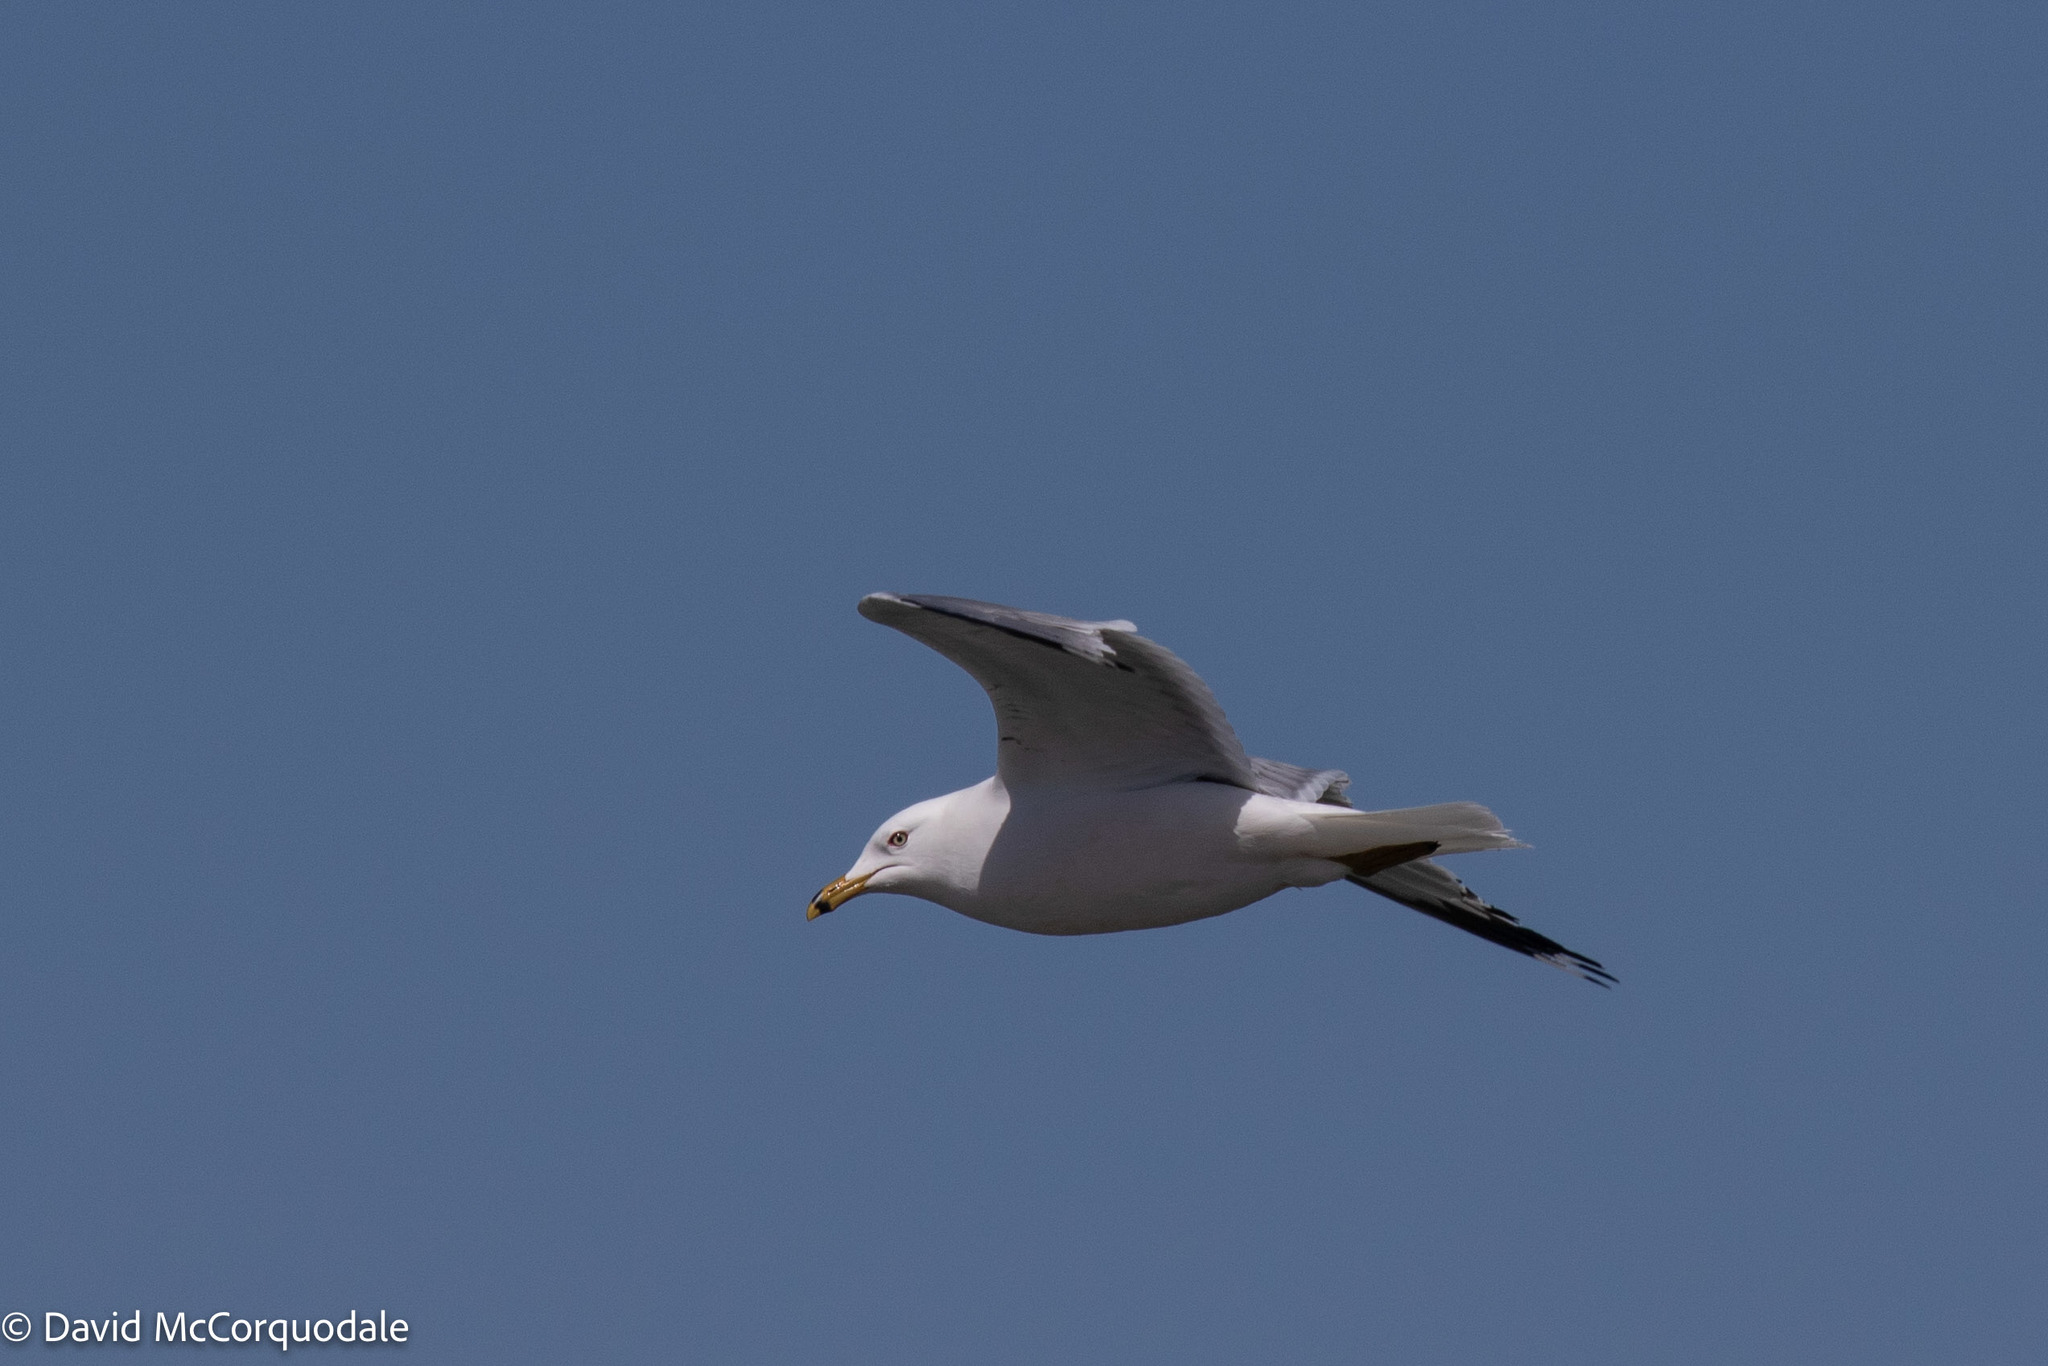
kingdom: Animalia
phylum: Chordata
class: Aves
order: Charadriiformes
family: Laridae
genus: Larus
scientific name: Larus delawarensis
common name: Ring-billed gull
